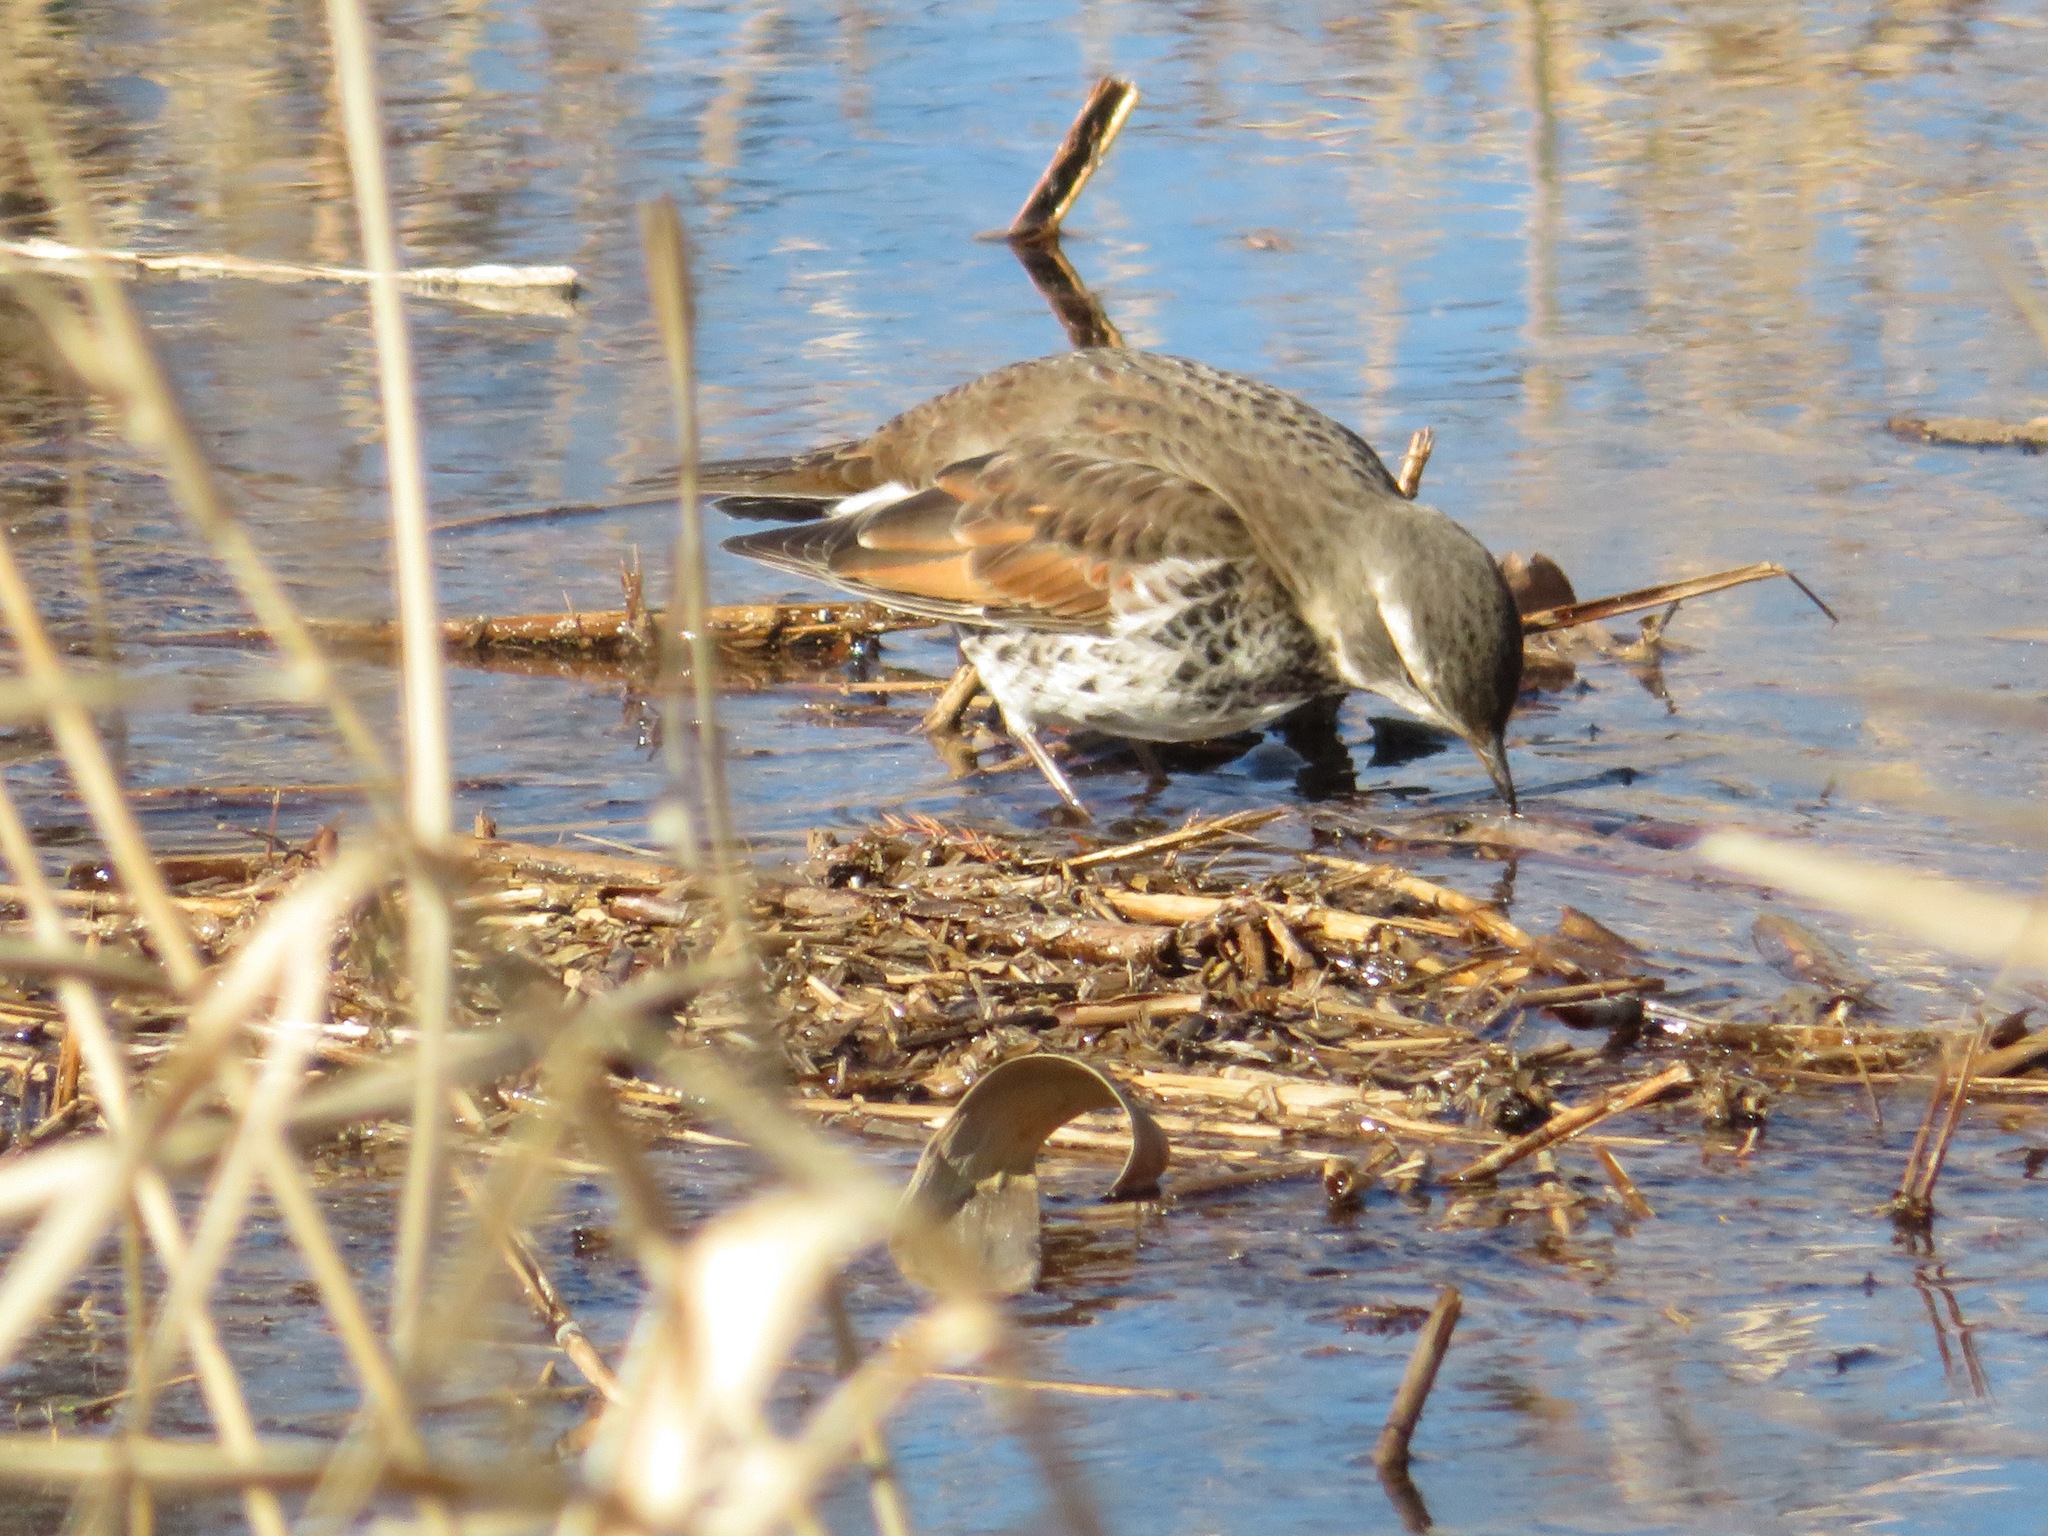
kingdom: Animalia
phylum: Chordata
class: Aves
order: Passeriformes
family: Turdidae
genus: Turdus
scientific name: Turdus eunomus
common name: Dusky thrush
